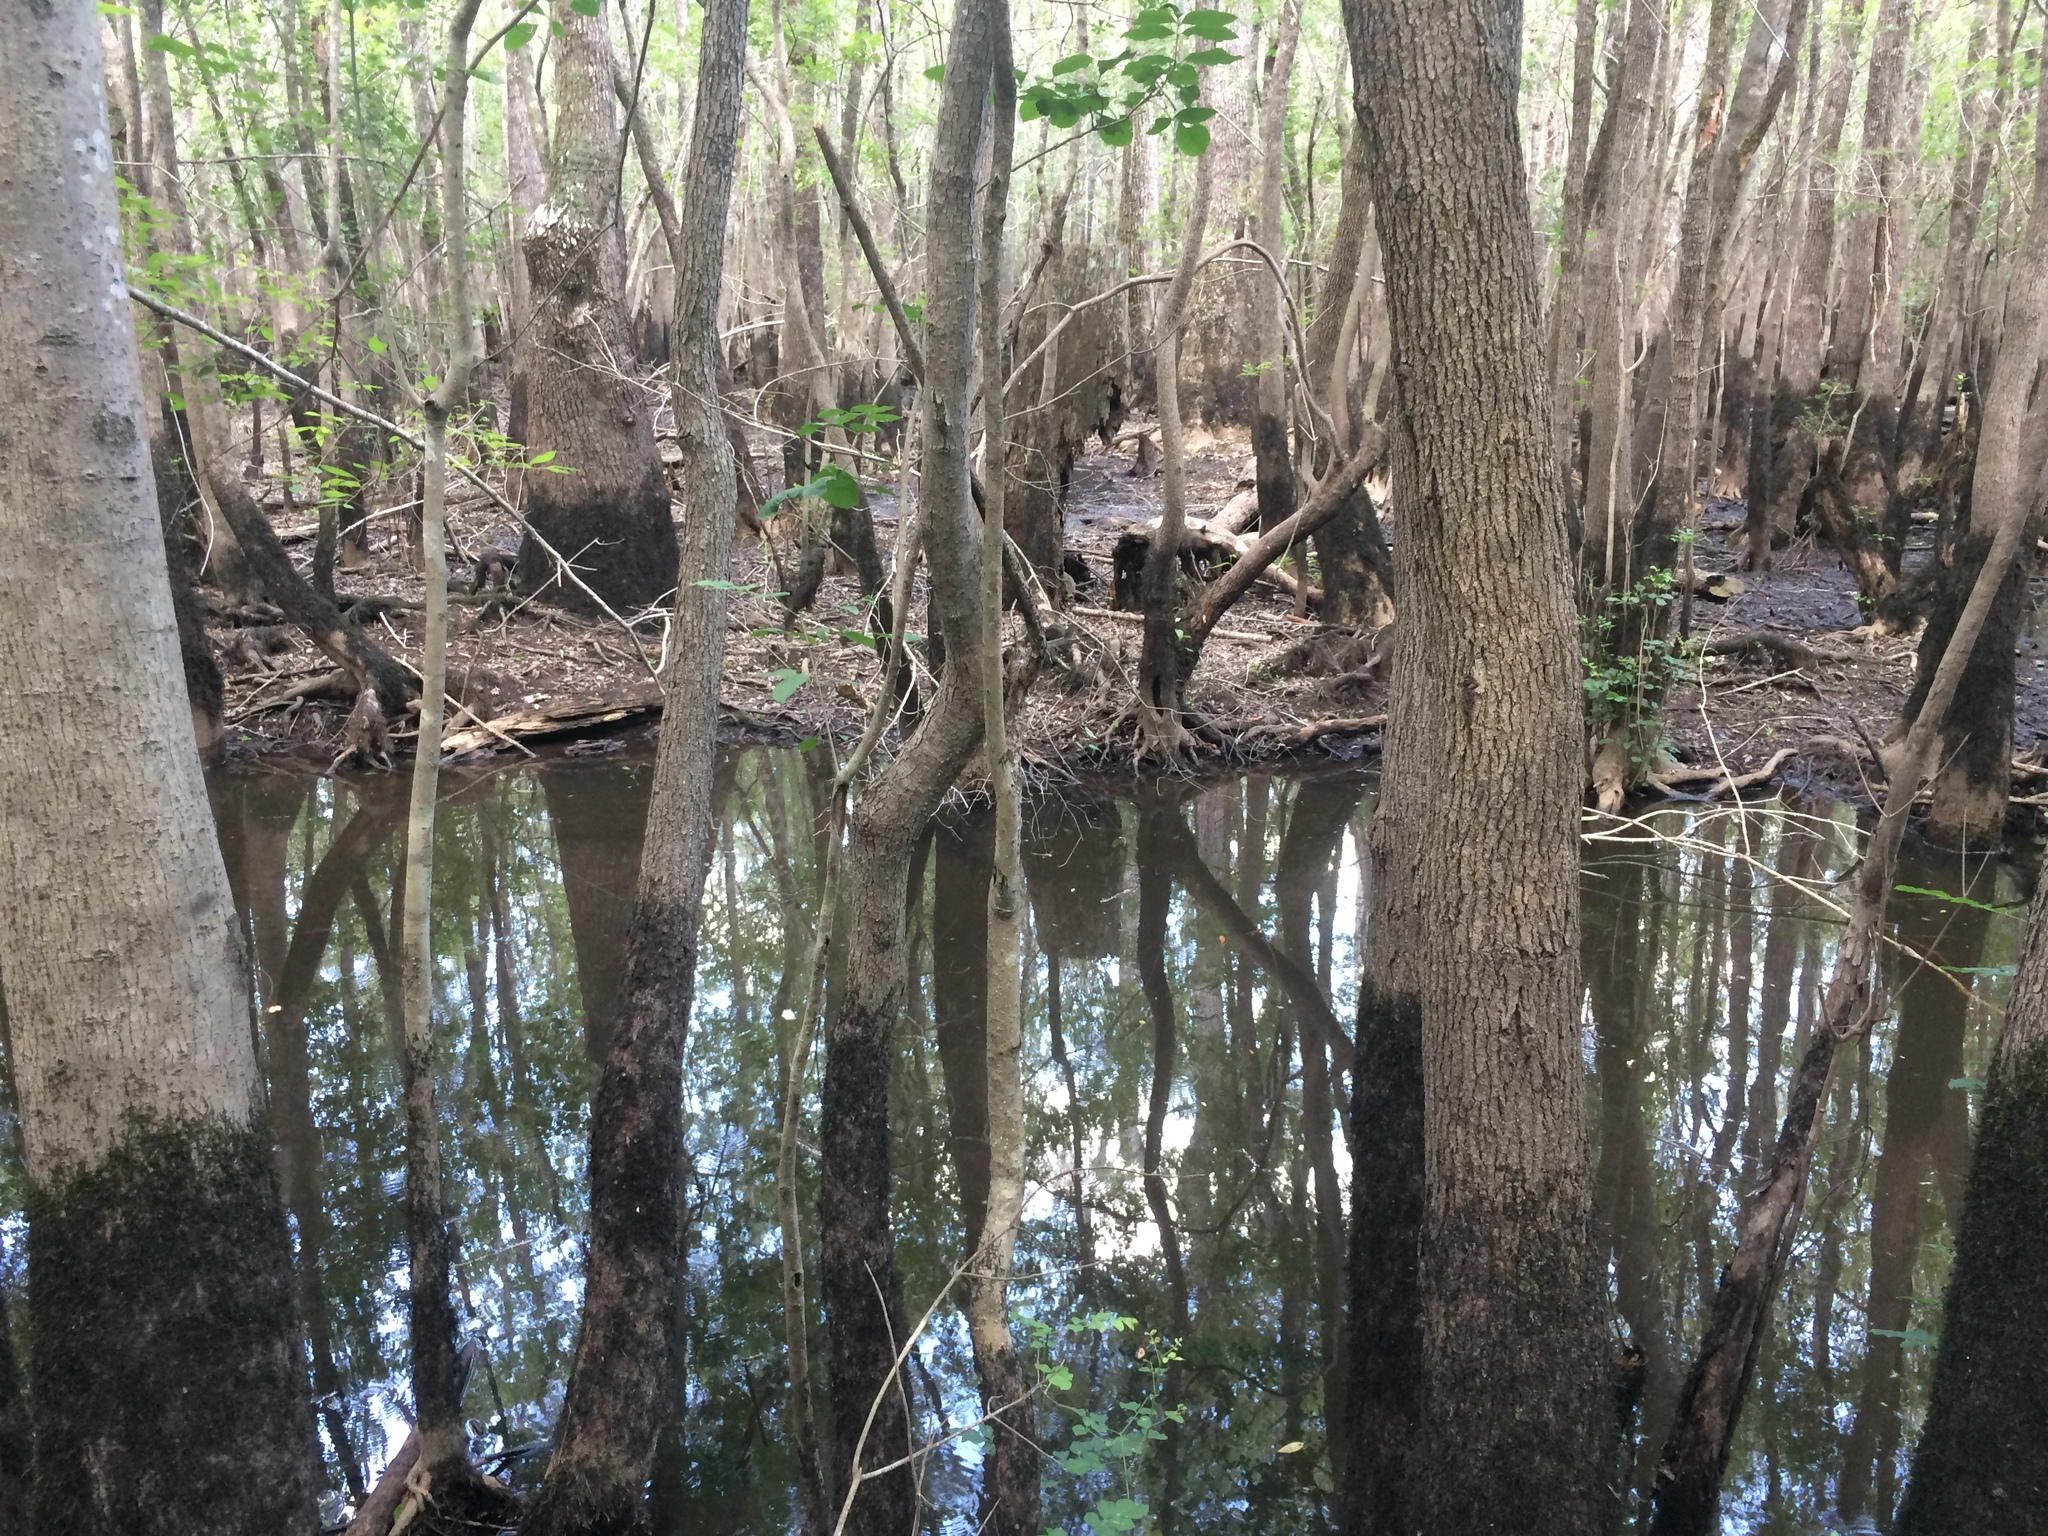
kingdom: Animalia
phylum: Chordata
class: Amphibia
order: Anura
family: Ranidae
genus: Lithobates
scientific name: Lithobates sphenocephalus
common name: Southern leopard frog
